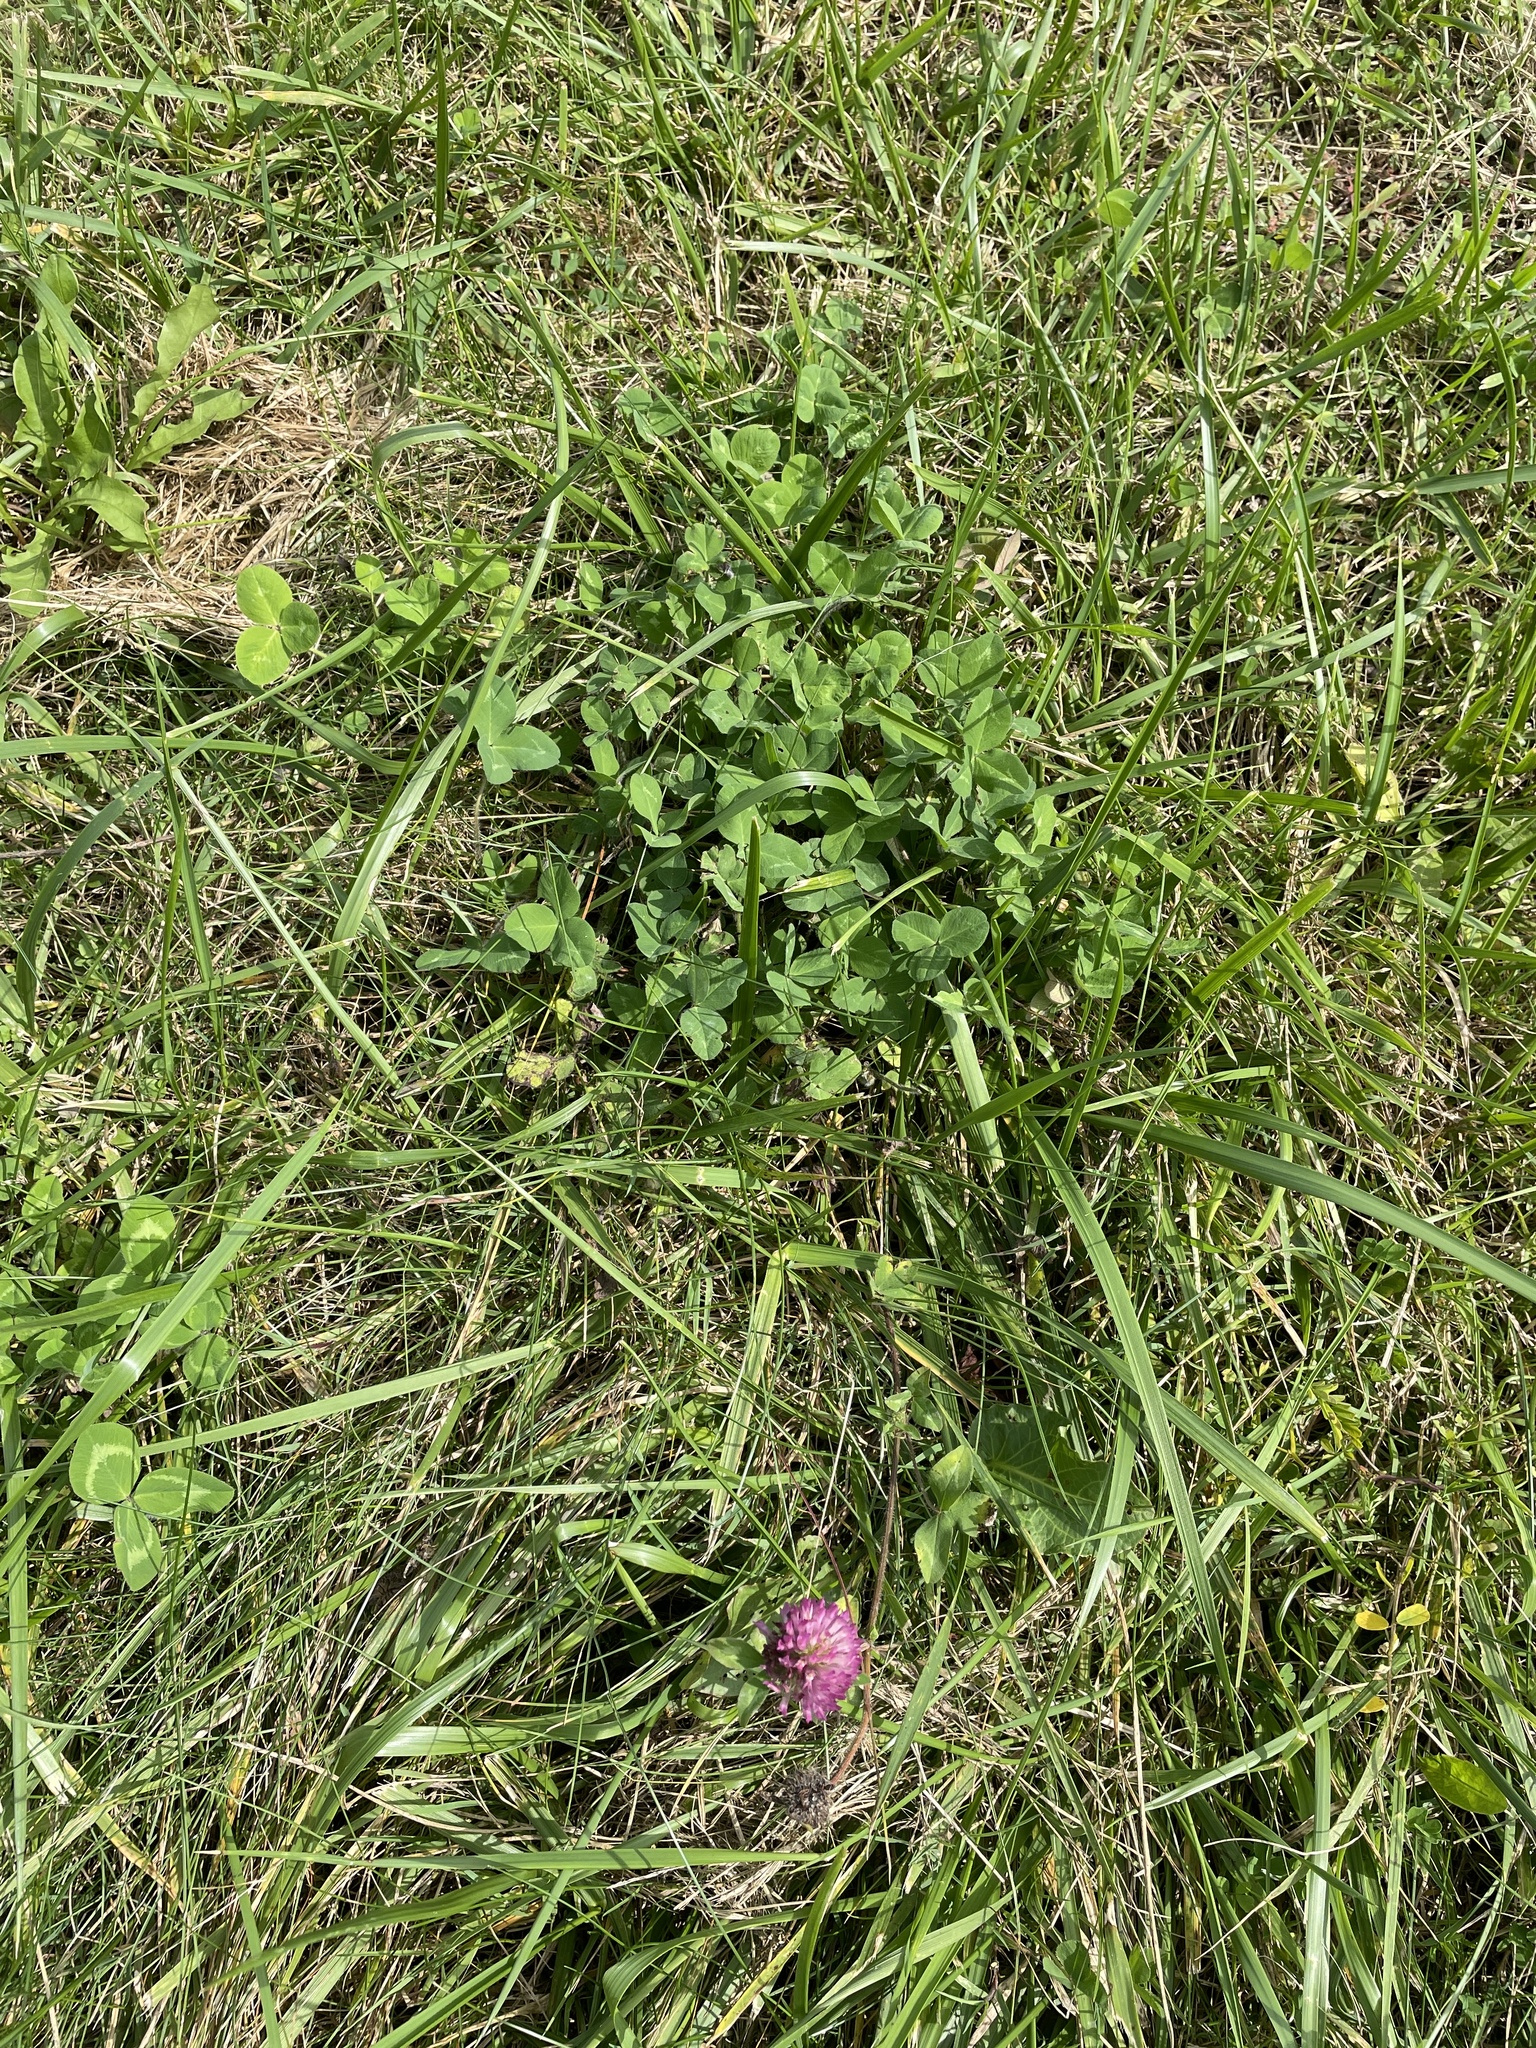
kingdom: Plantae
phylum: Tracheophyta
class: Magnoliopsida
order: Fabales
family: Fabaceae
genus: Trifolium
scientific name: Trifolium pratense
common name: Red clover
